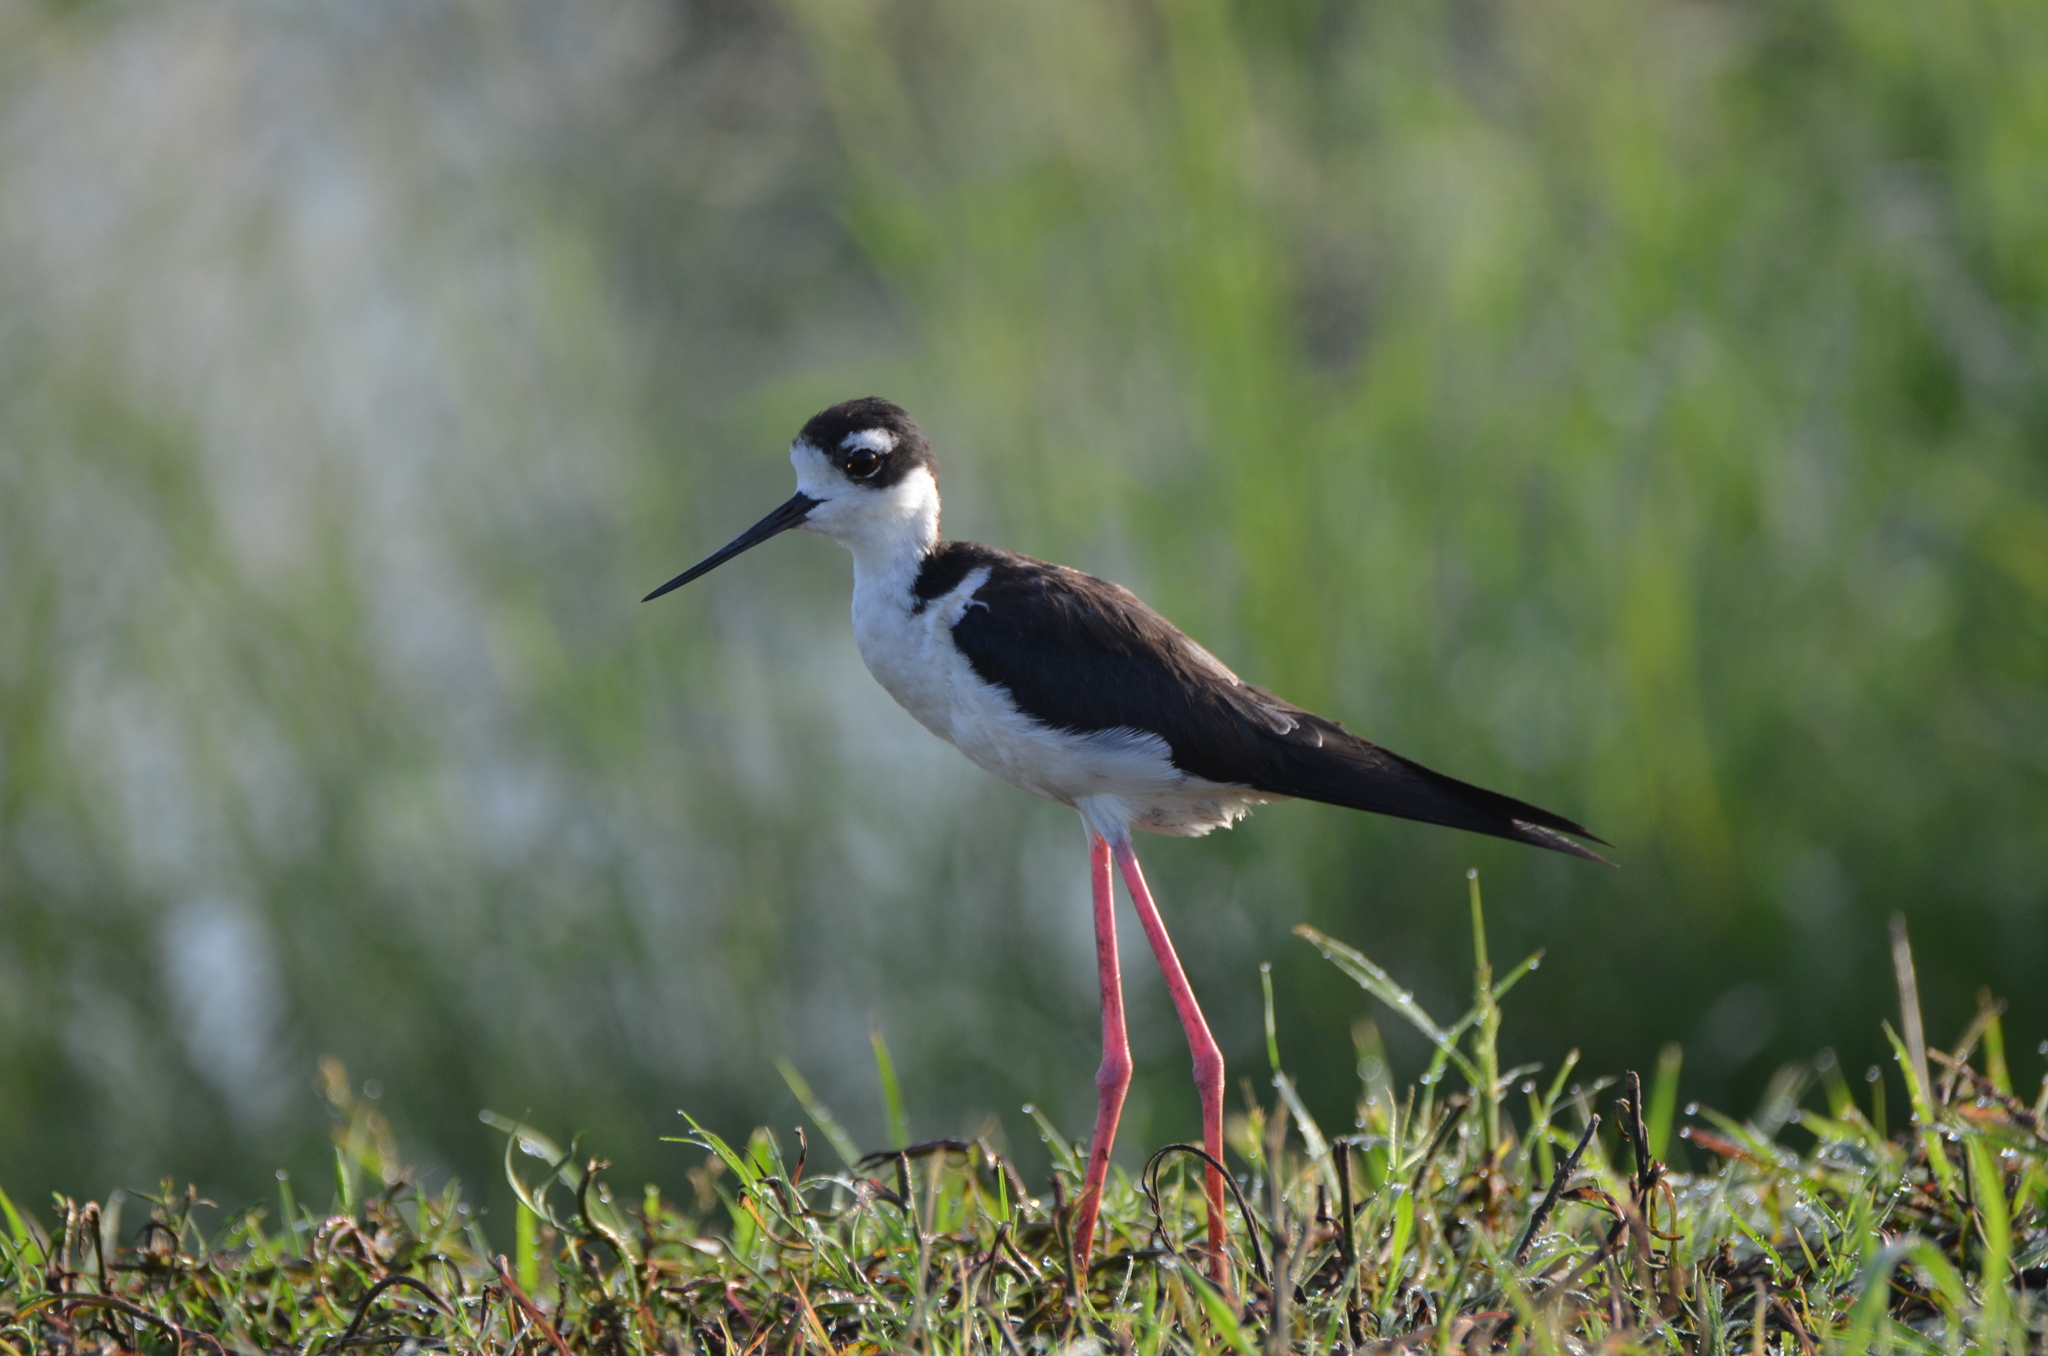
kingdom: Animalia
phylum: Chordata
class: Aves
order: Charadriiformes
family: Recurvirostridae
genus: Himantopus
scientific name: Himantopus mexicanus
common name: Black-necked stilt
